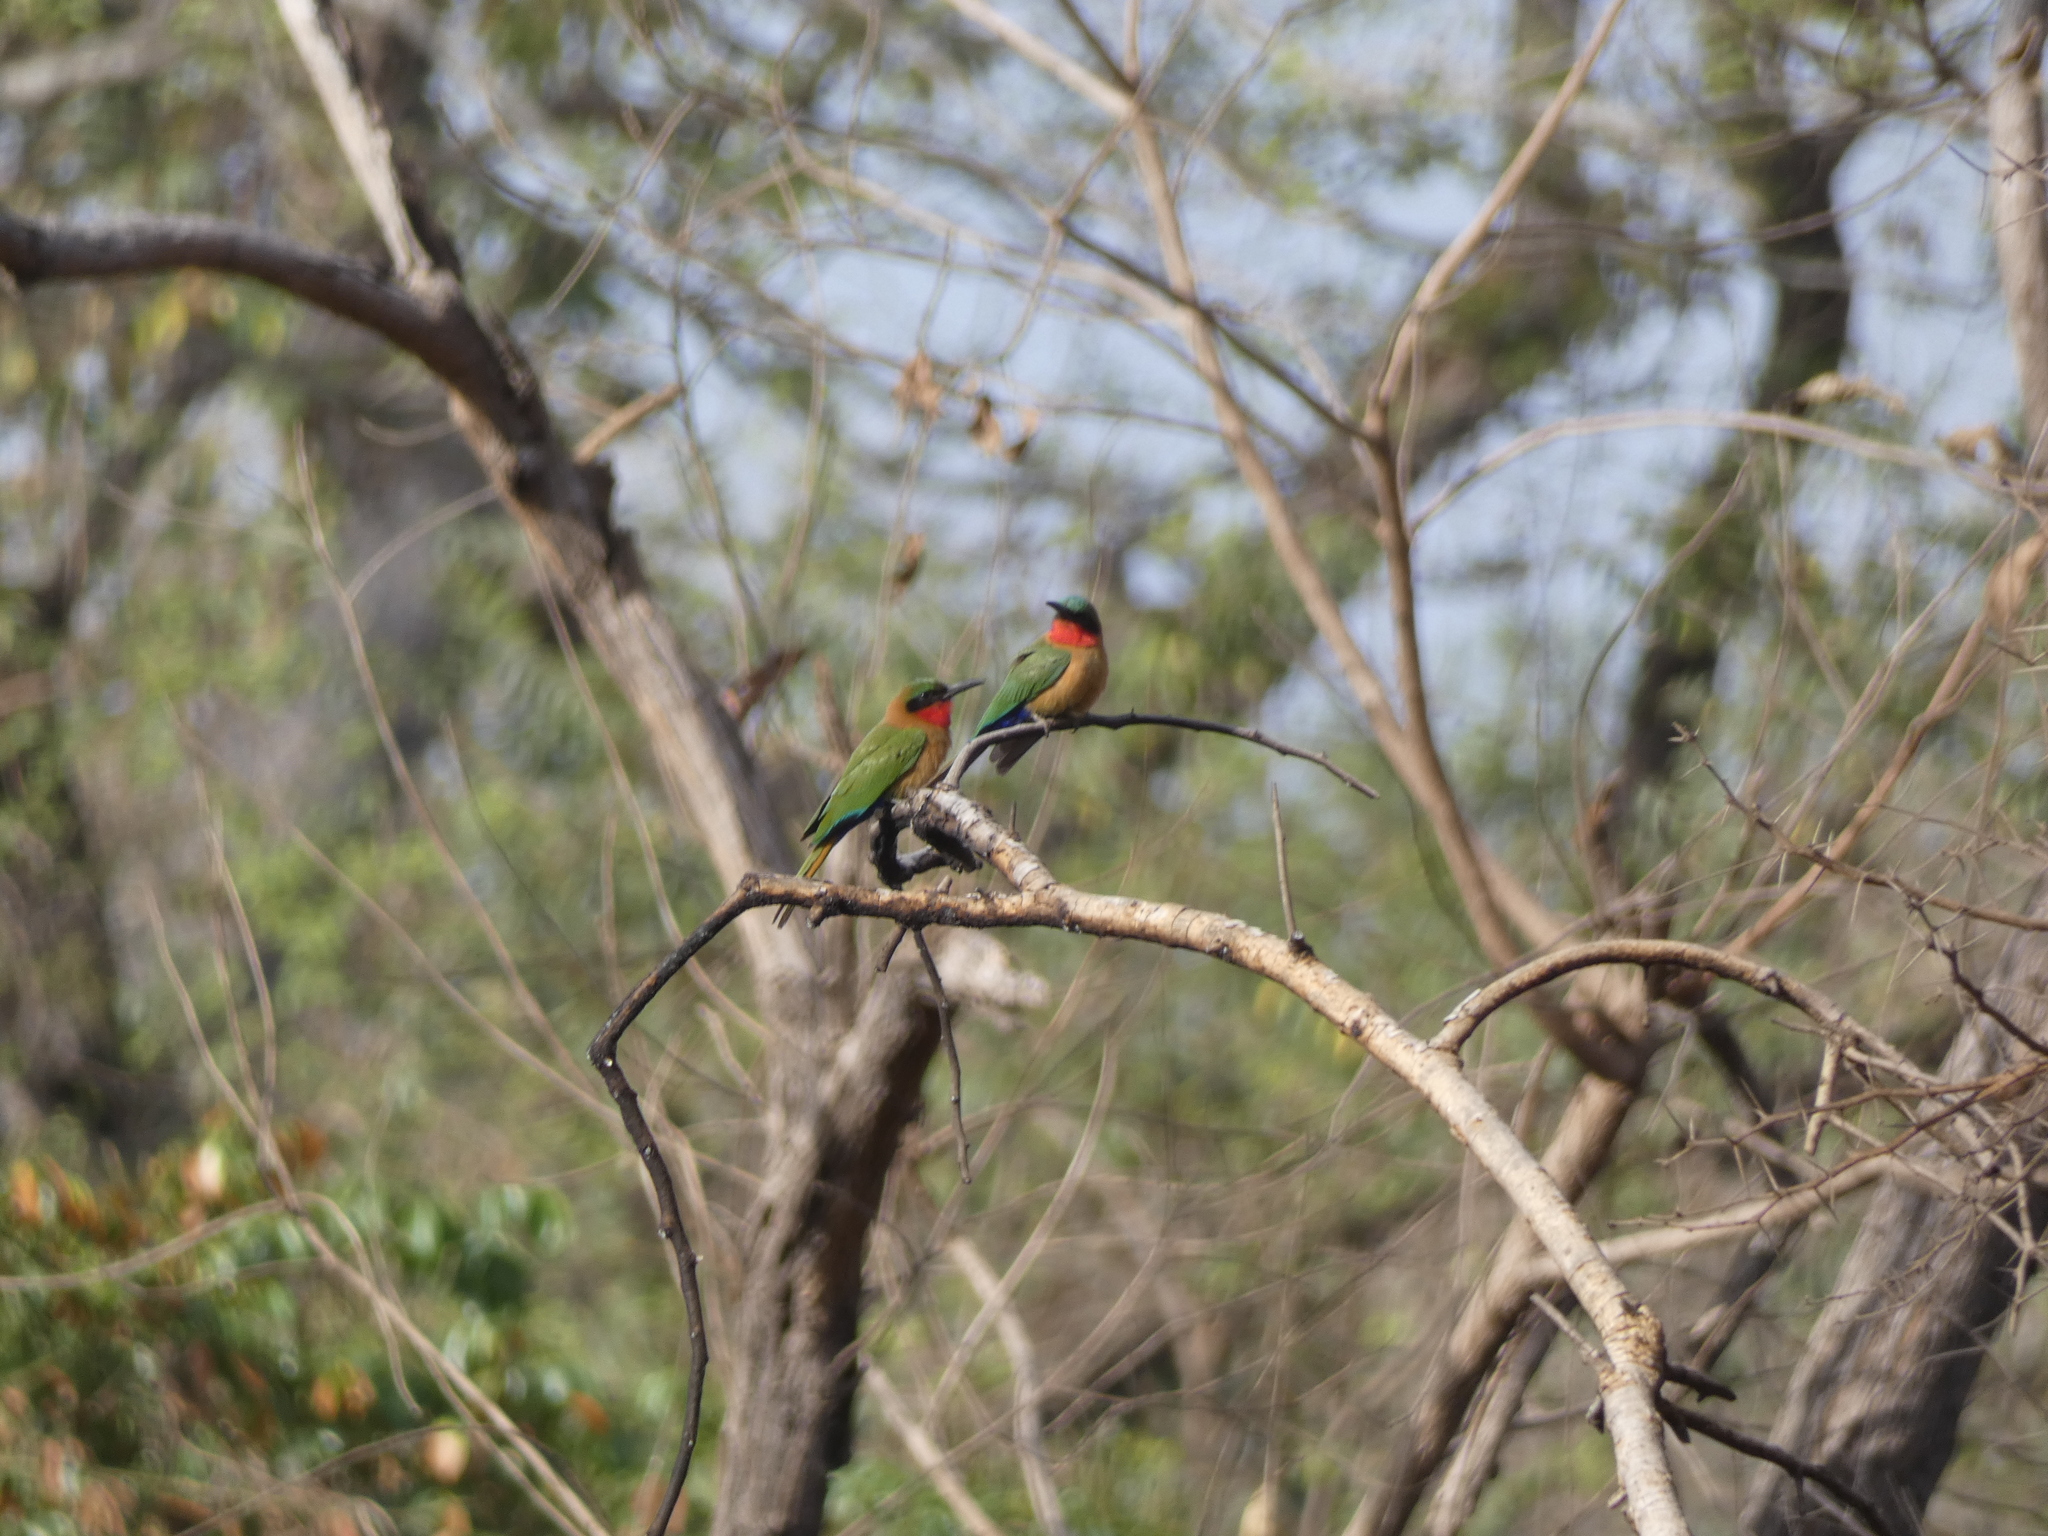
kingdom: Animalia
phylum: Chordata
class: Aves
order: Coraciiformes
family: Meropidae
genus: Merops
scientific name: Merops bulocki
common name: Red-throated bee-eater
